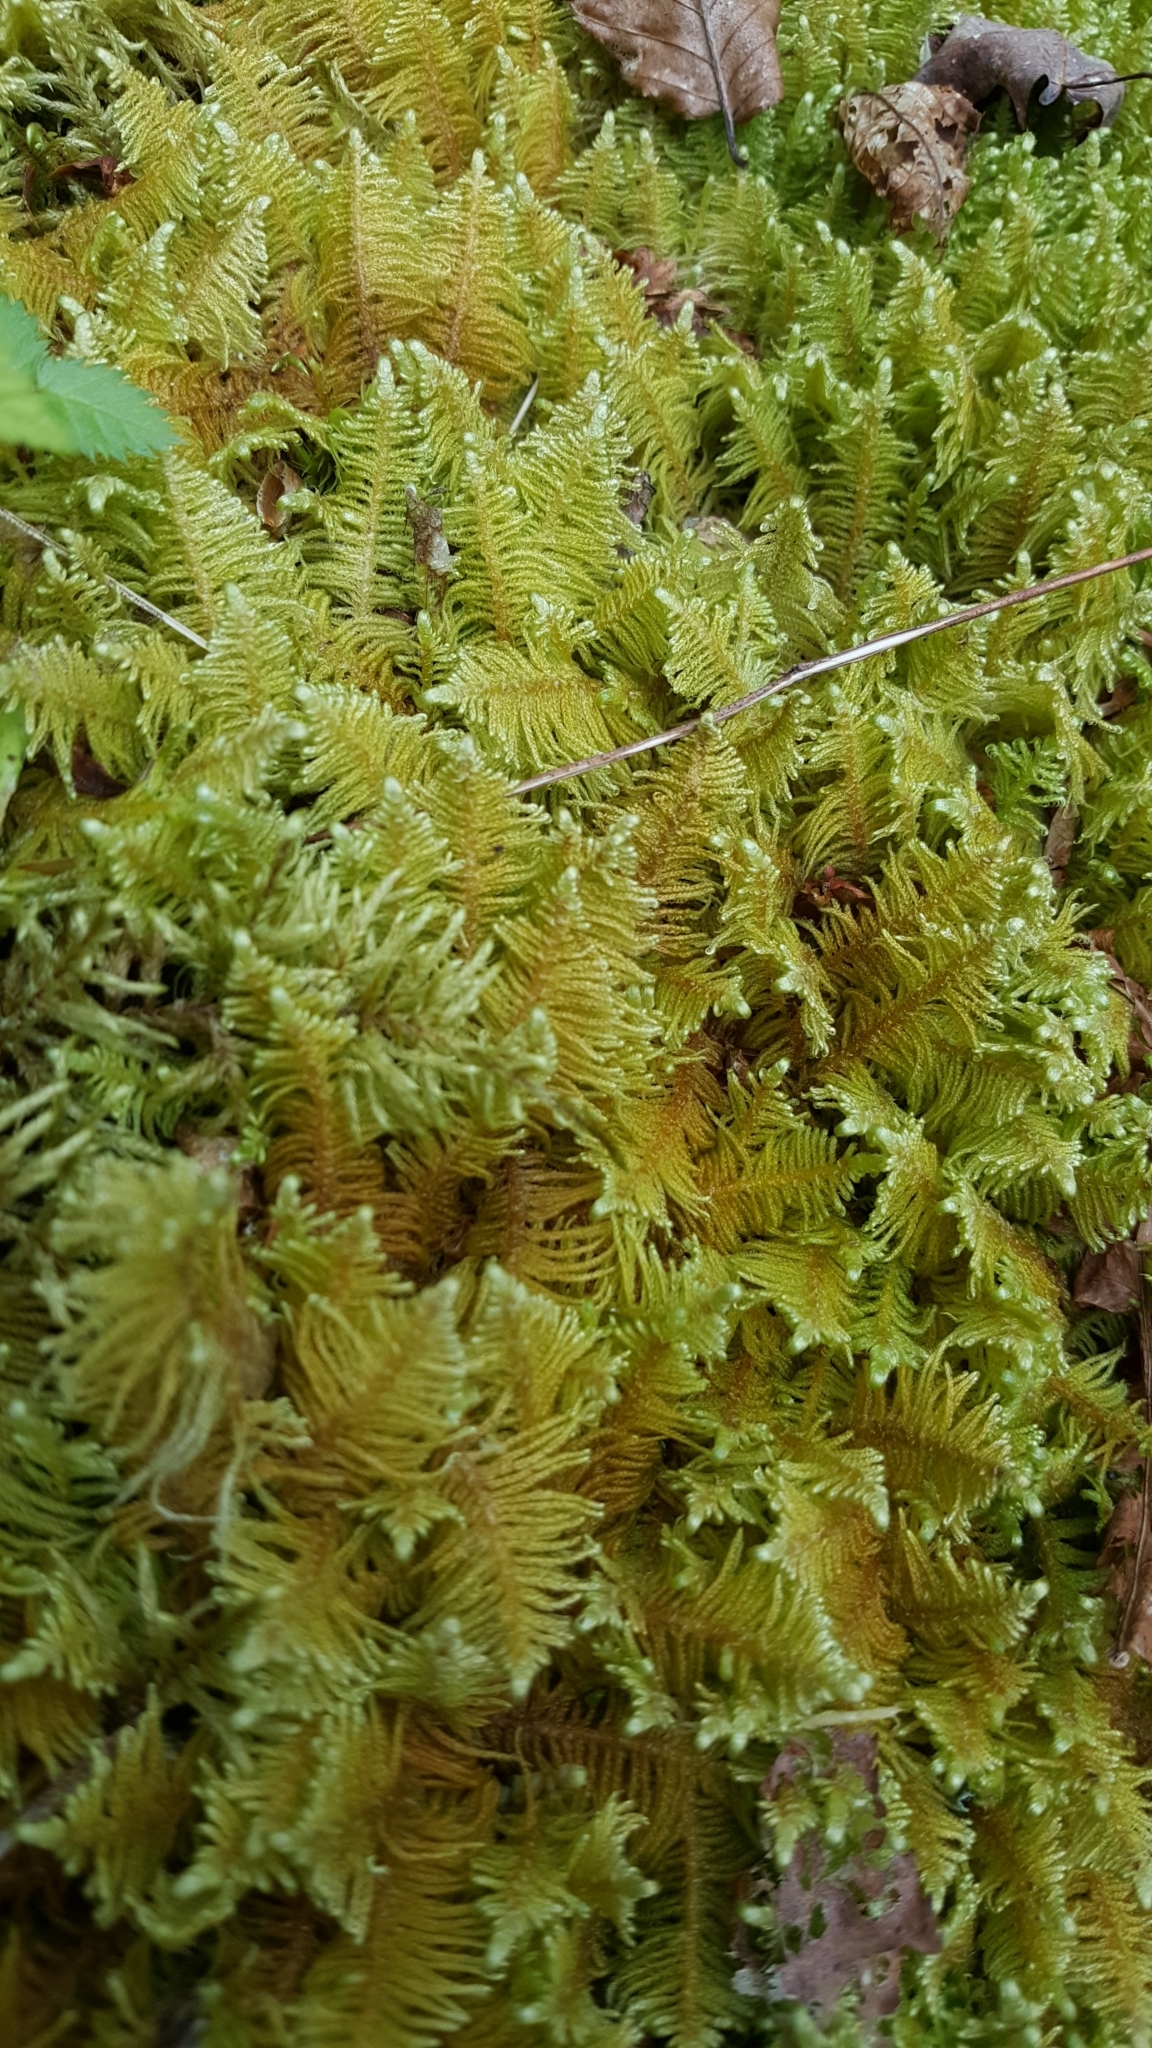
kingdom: Plantae
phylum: Bryophyta
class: Bryopsida
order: Hypnales
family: Pylaisiaceae
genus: Ptilium
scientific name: Ptilium crista-castrensis
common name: Knight's plume moss
